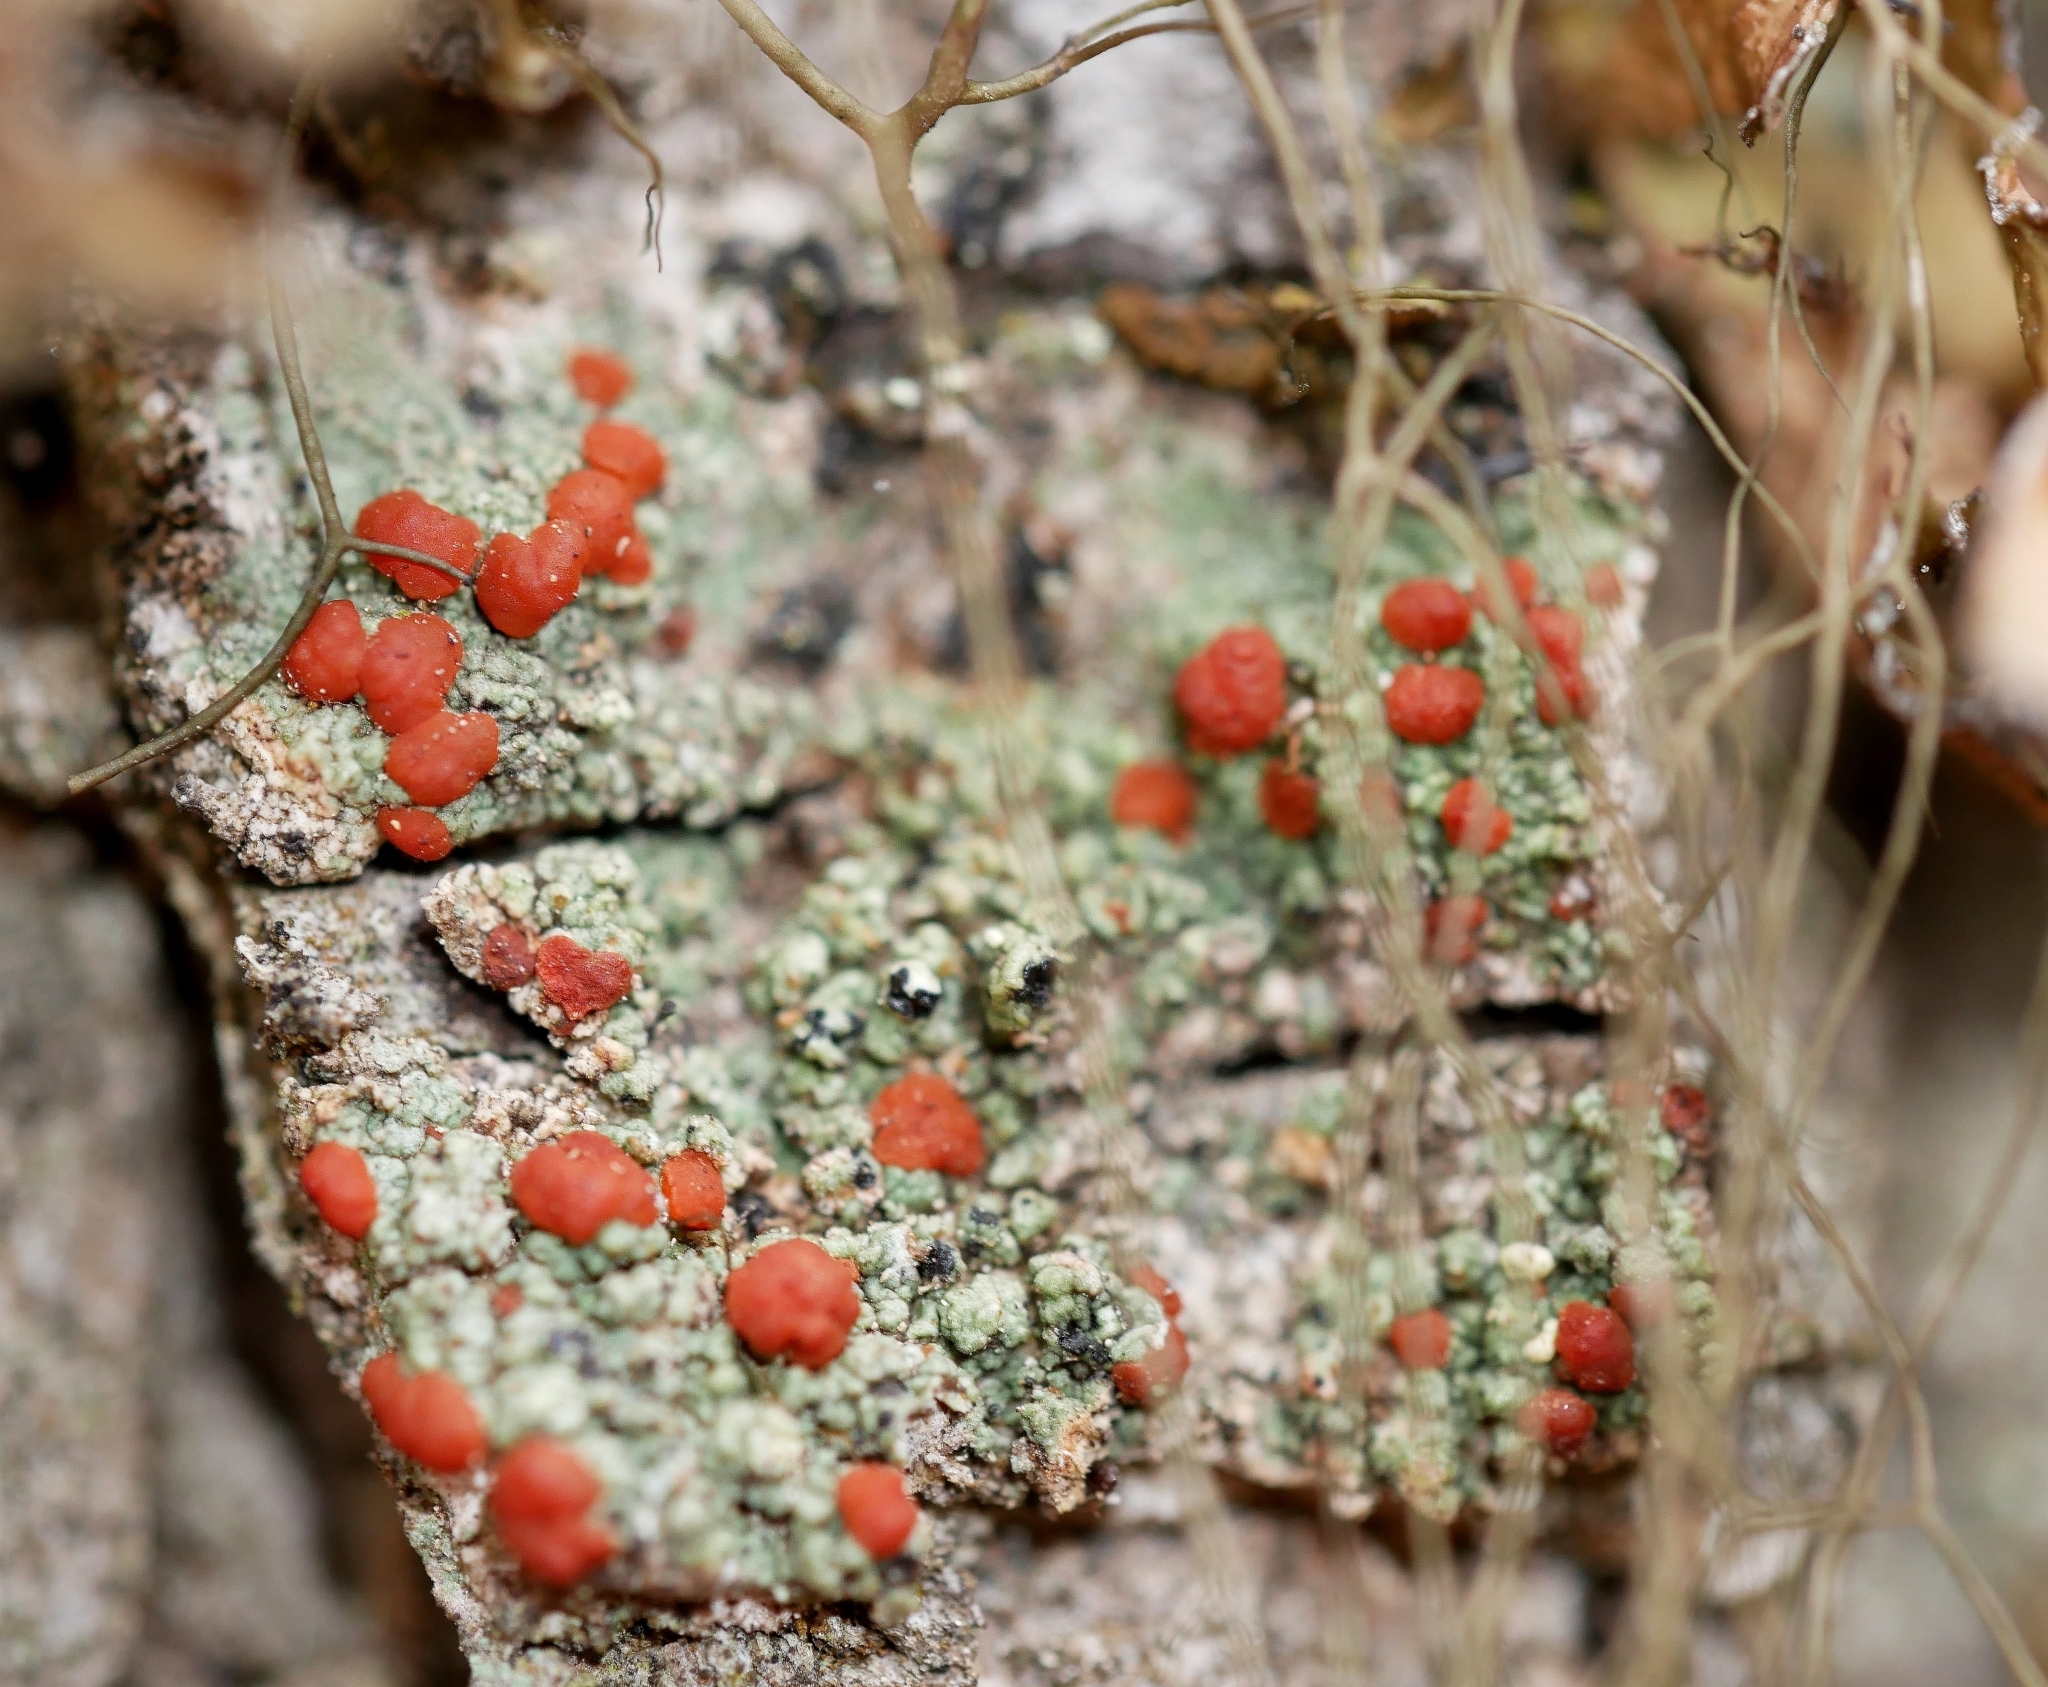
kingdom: Fungi
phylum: Ascomycota
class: Lecanoromycetes
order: Lecanorales
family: Ramboldiaceae
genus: Ramboldia
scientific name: Ramboldia gowardiana
